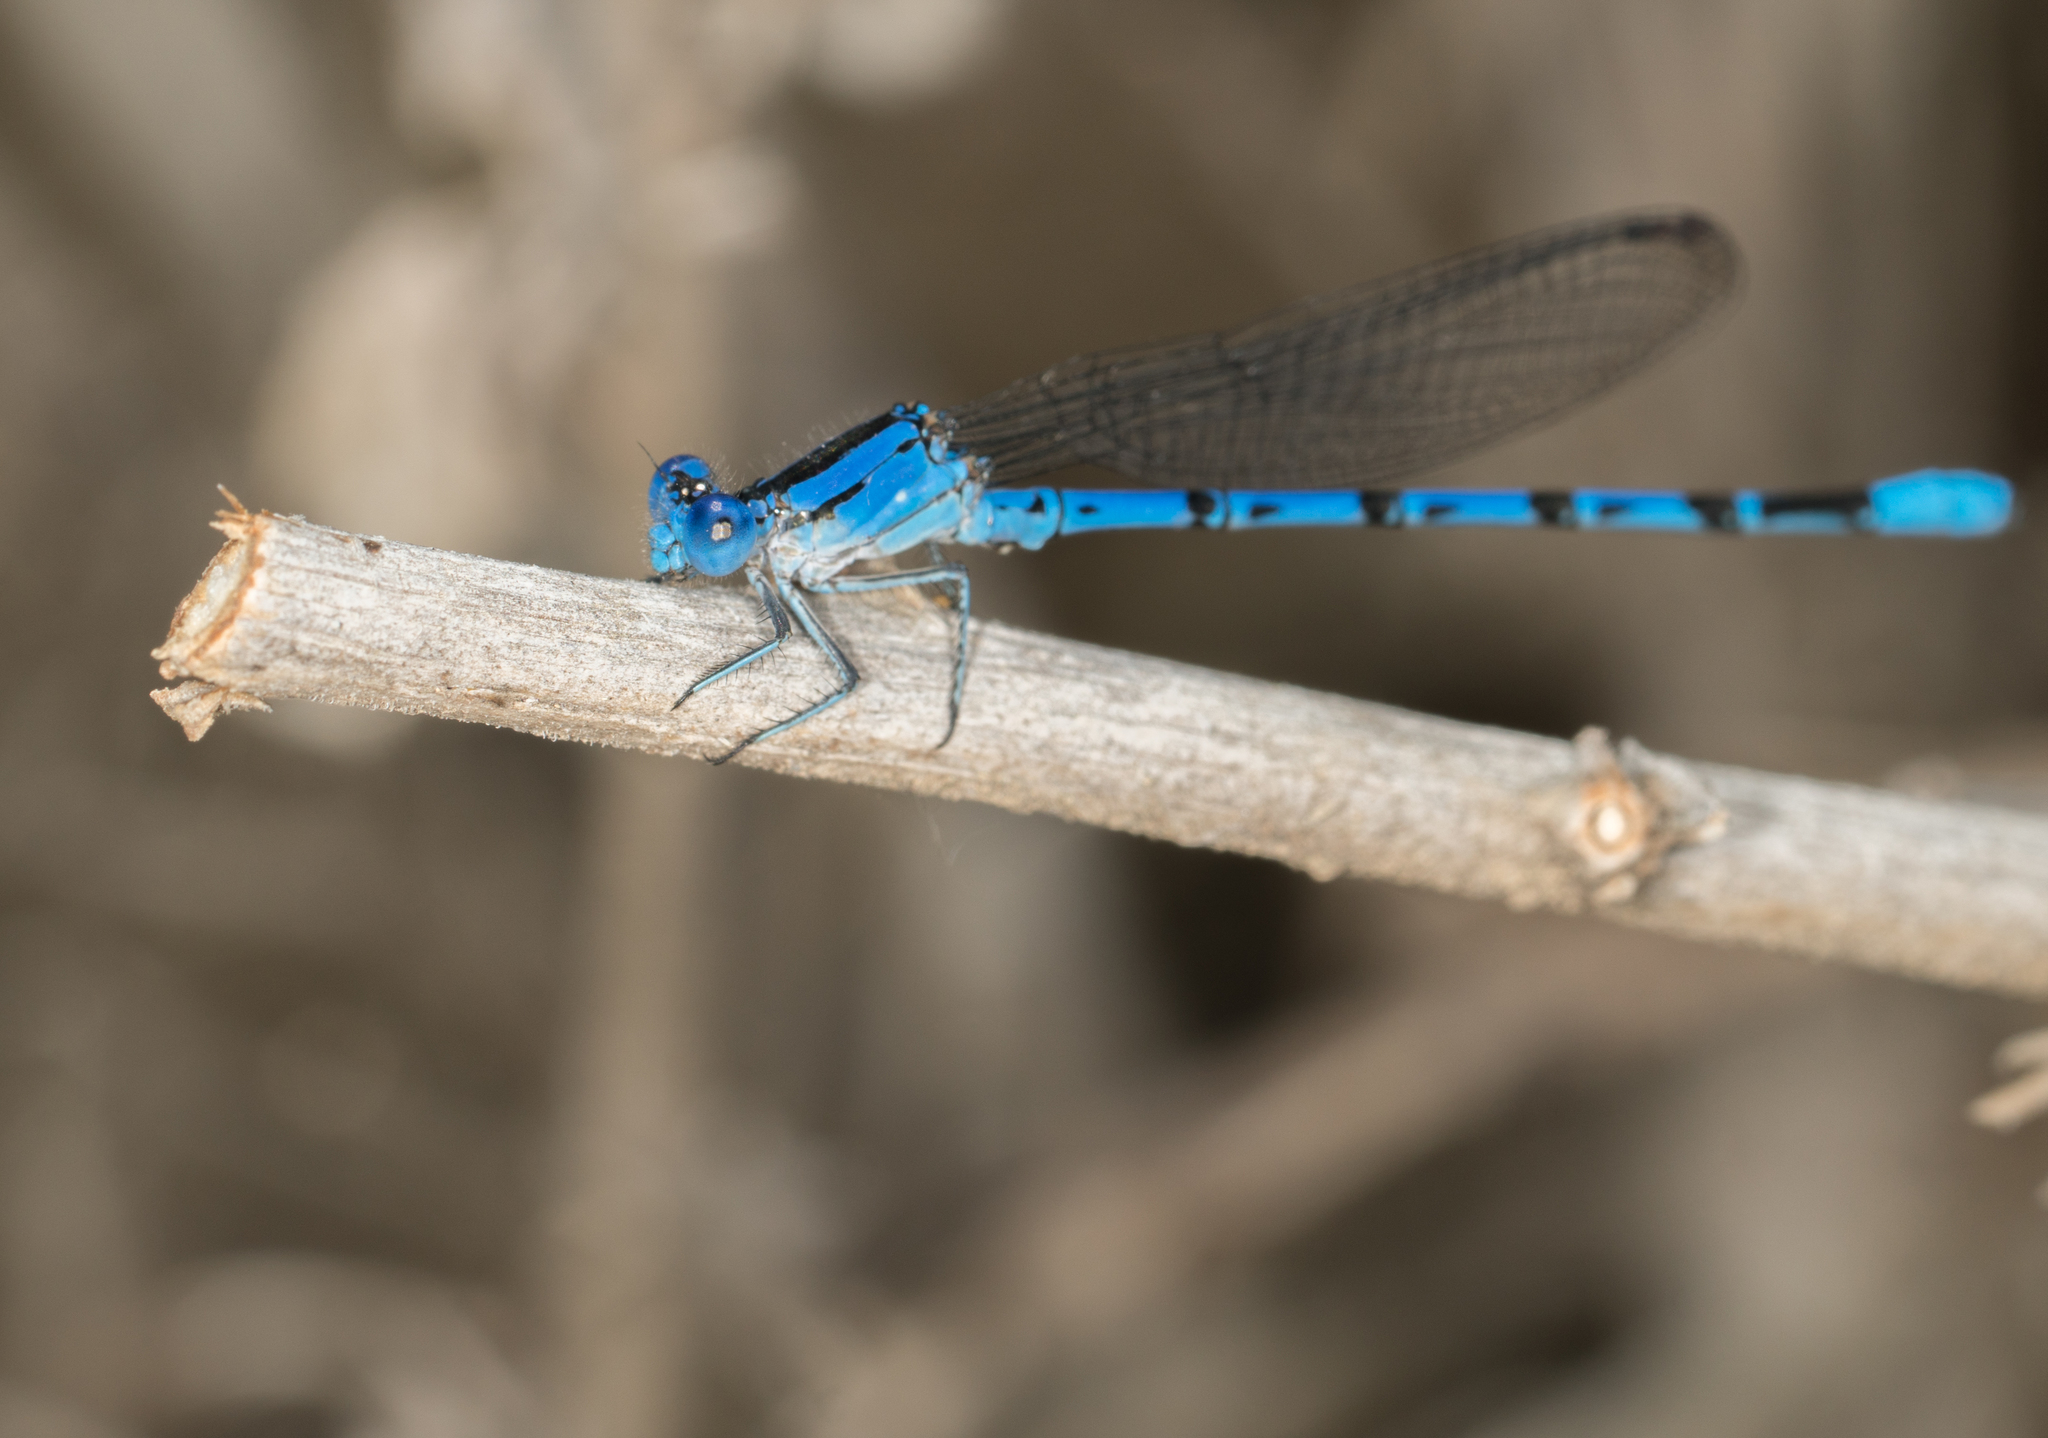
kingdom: Animalia
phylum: Arthropoda
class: Insecta
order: Odonata
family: Coenagrionidae
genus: Argia
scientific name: Argia vivida
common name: Vivid dancer
